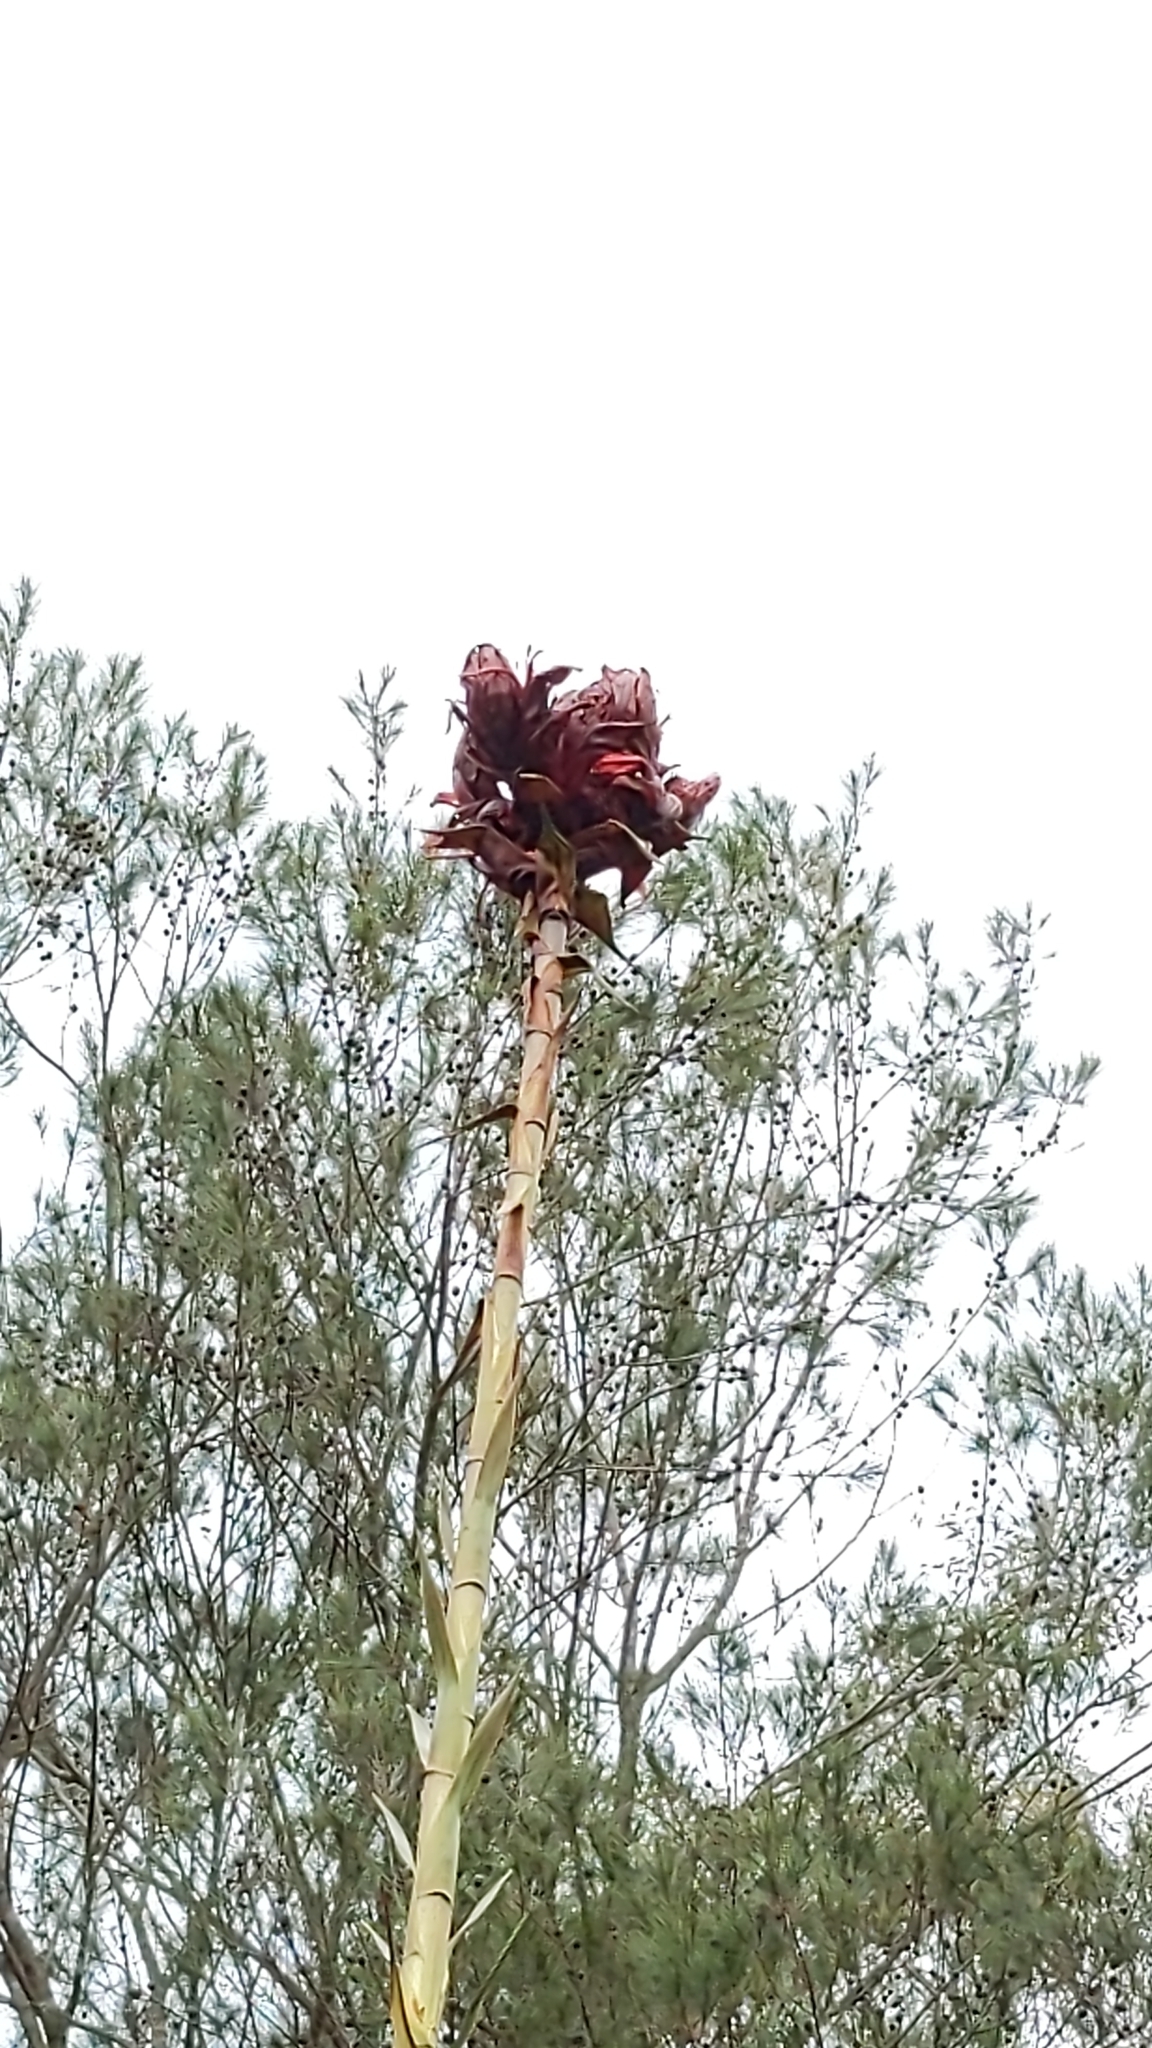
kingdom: Plantae
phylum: Tracheophyta
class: Liliopsida
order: Asparagales
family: Doryanthaceae
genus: Doryanthes
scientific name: Doryanthes excelsa
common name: Giant-lily
